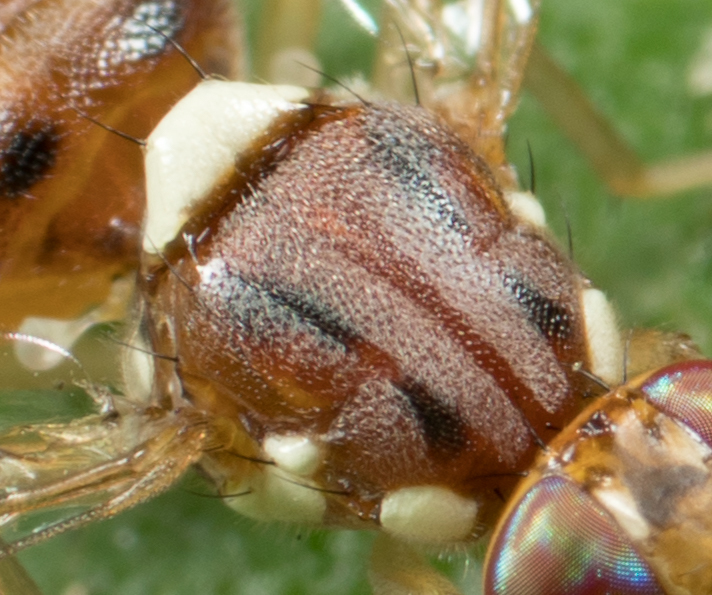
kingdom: Animalia
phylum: Arthropoda
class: Insecta
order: Diptera
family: Tephritidae
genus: Bactrocera
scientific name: Bactrocera oleae
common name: Olive fruit fly
